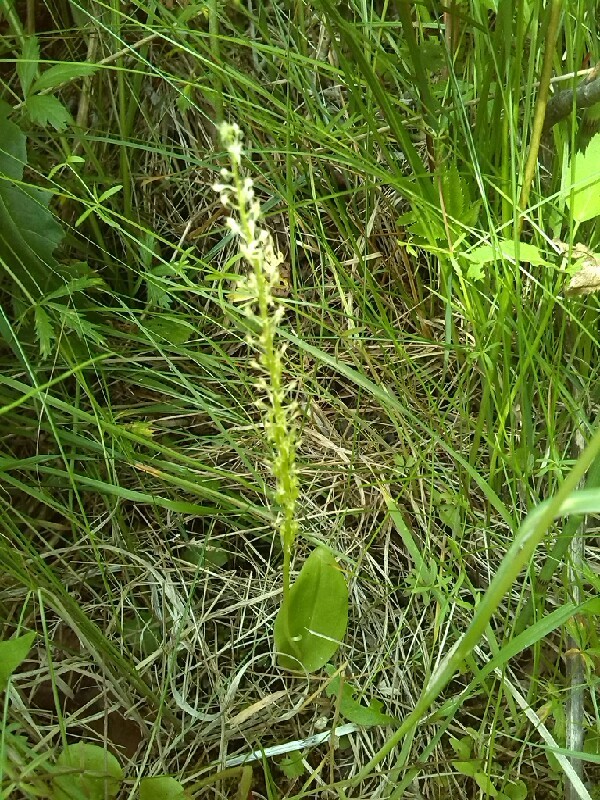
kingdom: Plantae
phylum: Tracheophyta
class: Liliopsida
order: Asparagales
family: Orchidaceae
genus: Malaxis
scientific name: Malaxis monophyllos
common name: White adder's-mouth
